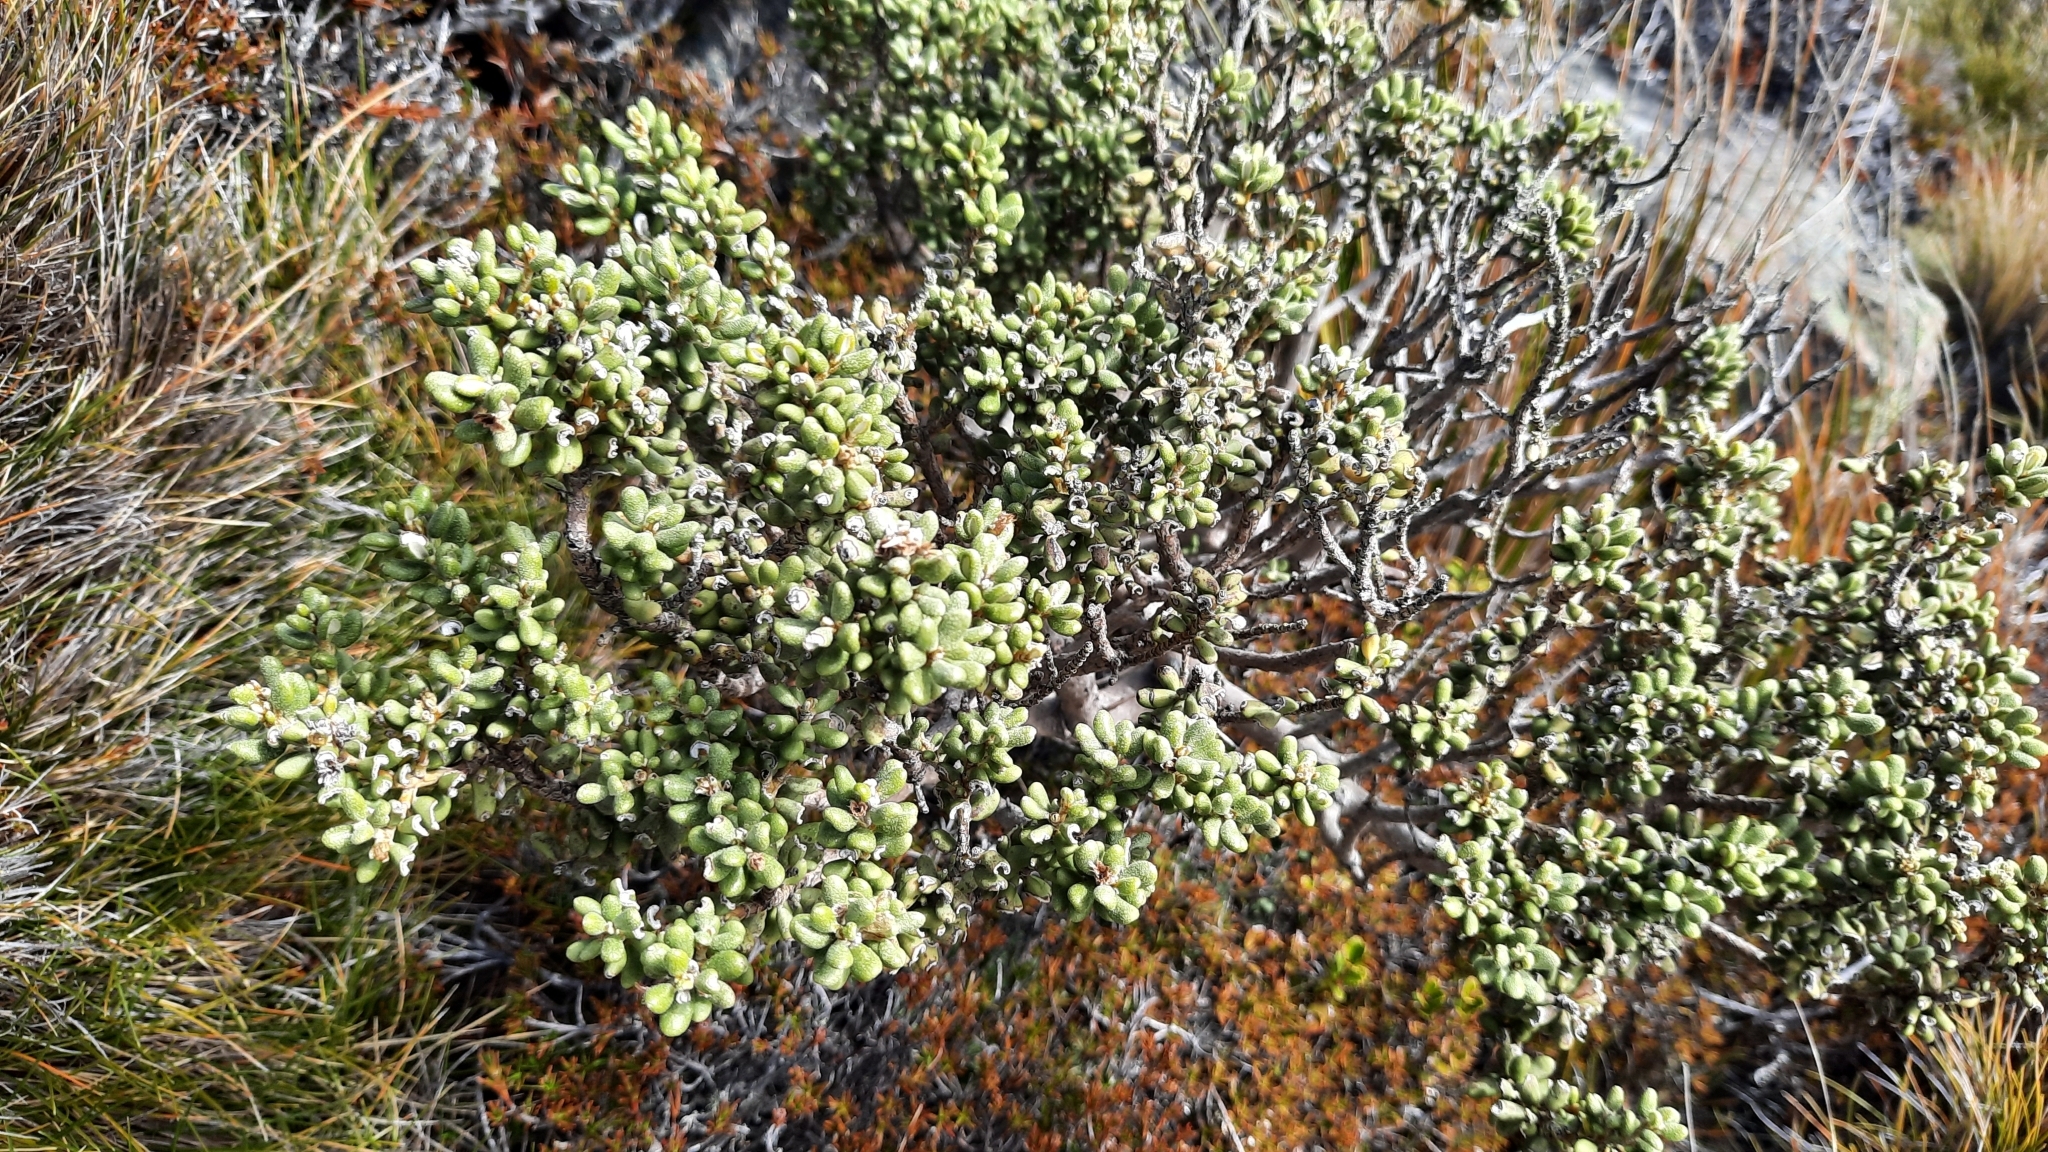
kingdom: Plantae
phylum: Tracheophyta
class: Magnoliopsida
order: Asterales
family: Asteraceae
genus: Olearia
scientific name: Olearia cymbifolia
